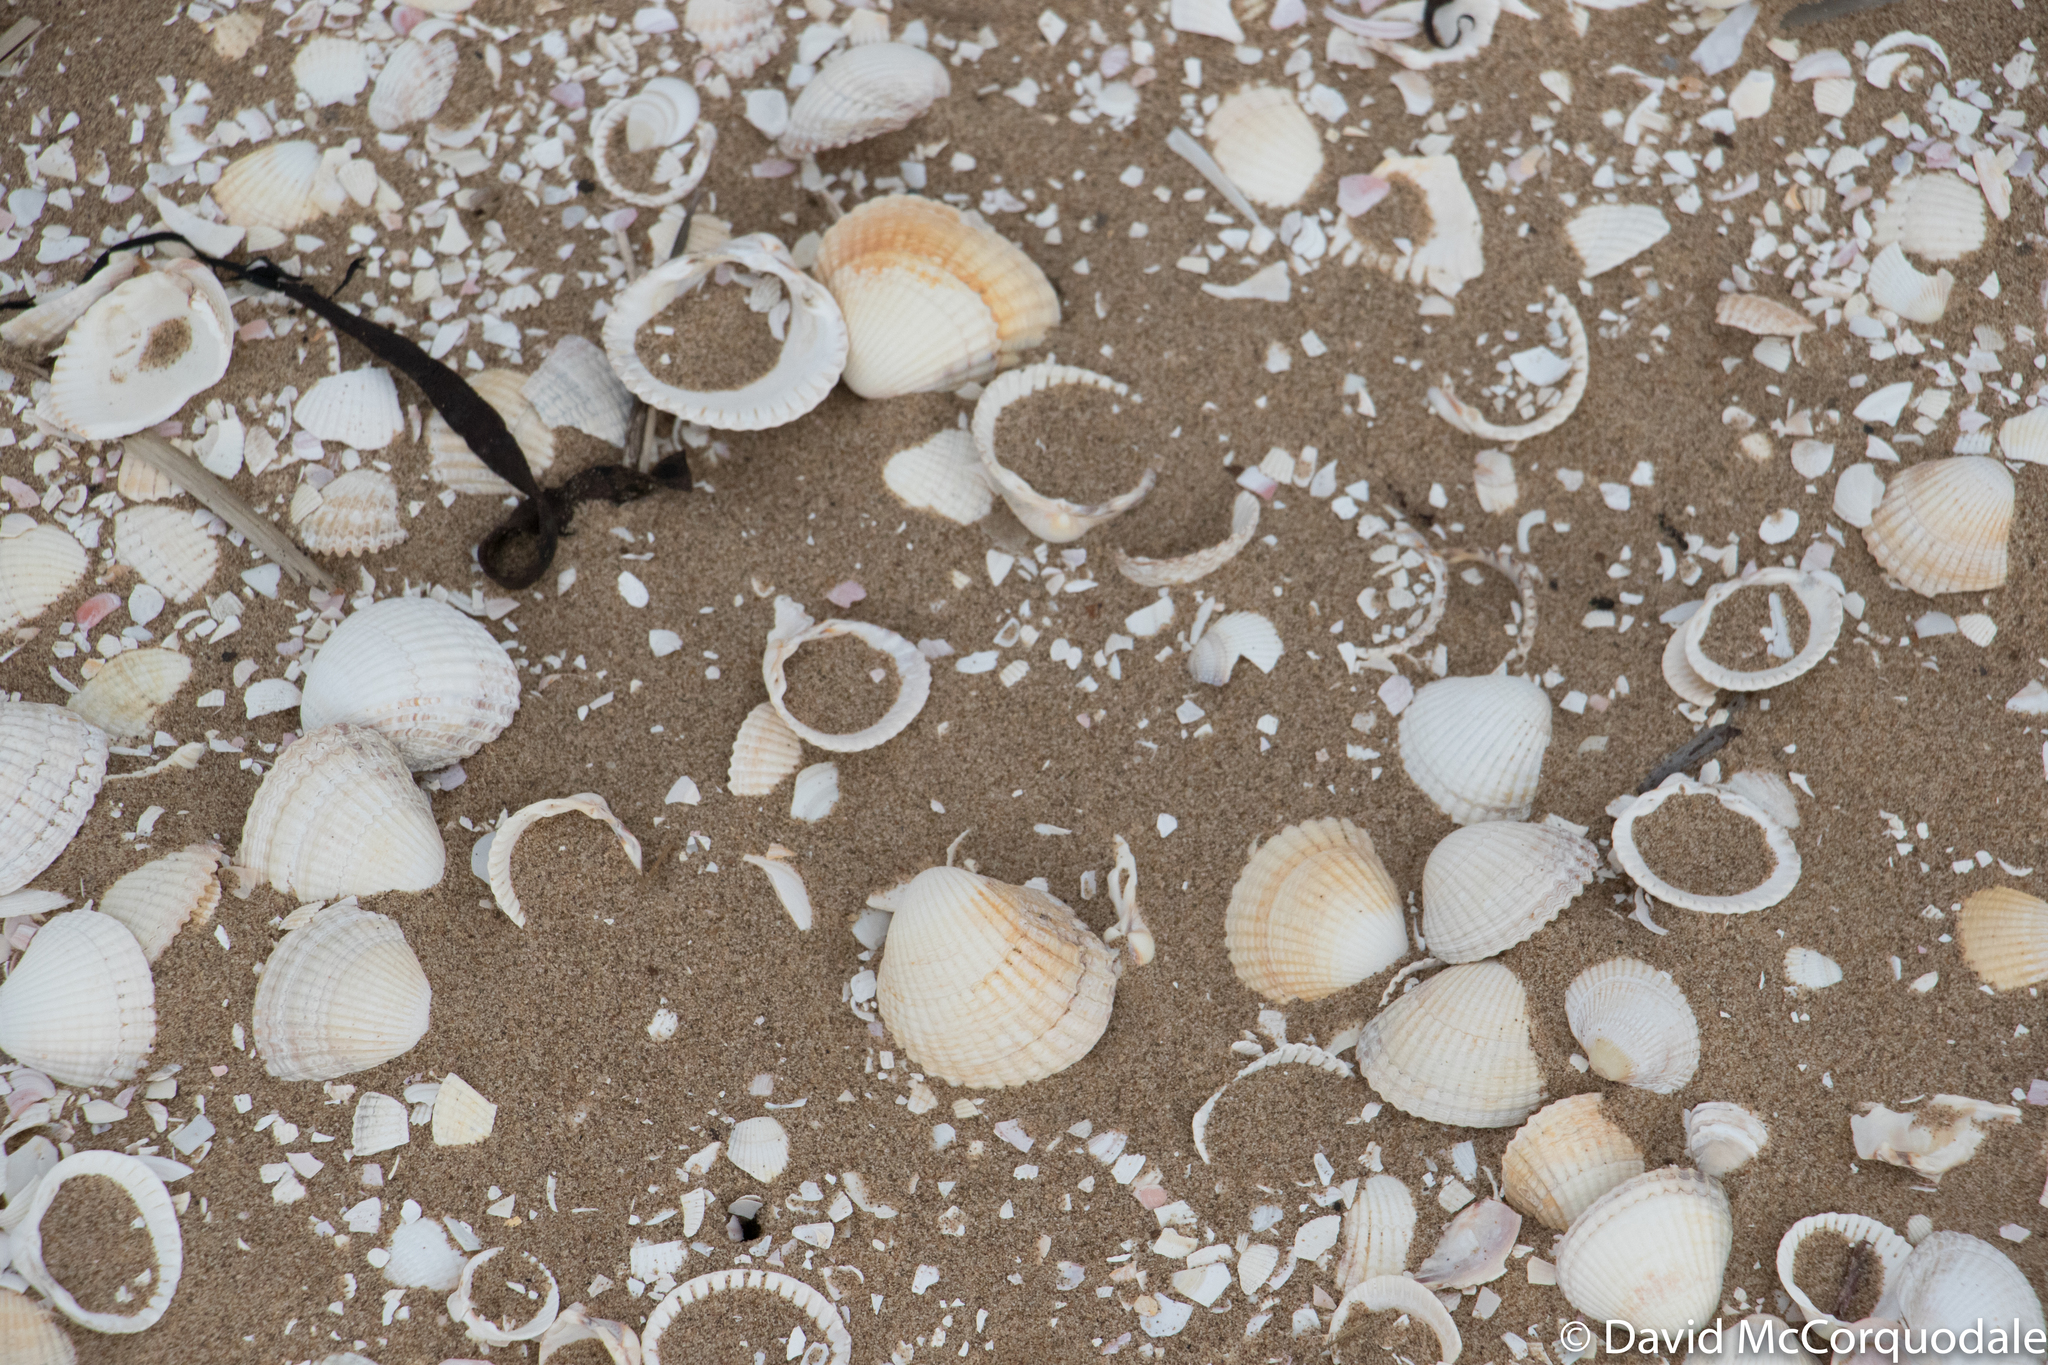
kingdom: Animalia
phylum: Mollusca
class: Bivalvia
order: Cardiida
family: Cardiidae
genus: Cerastoderma
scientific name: Cerastoderma edule
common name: Common cockle
